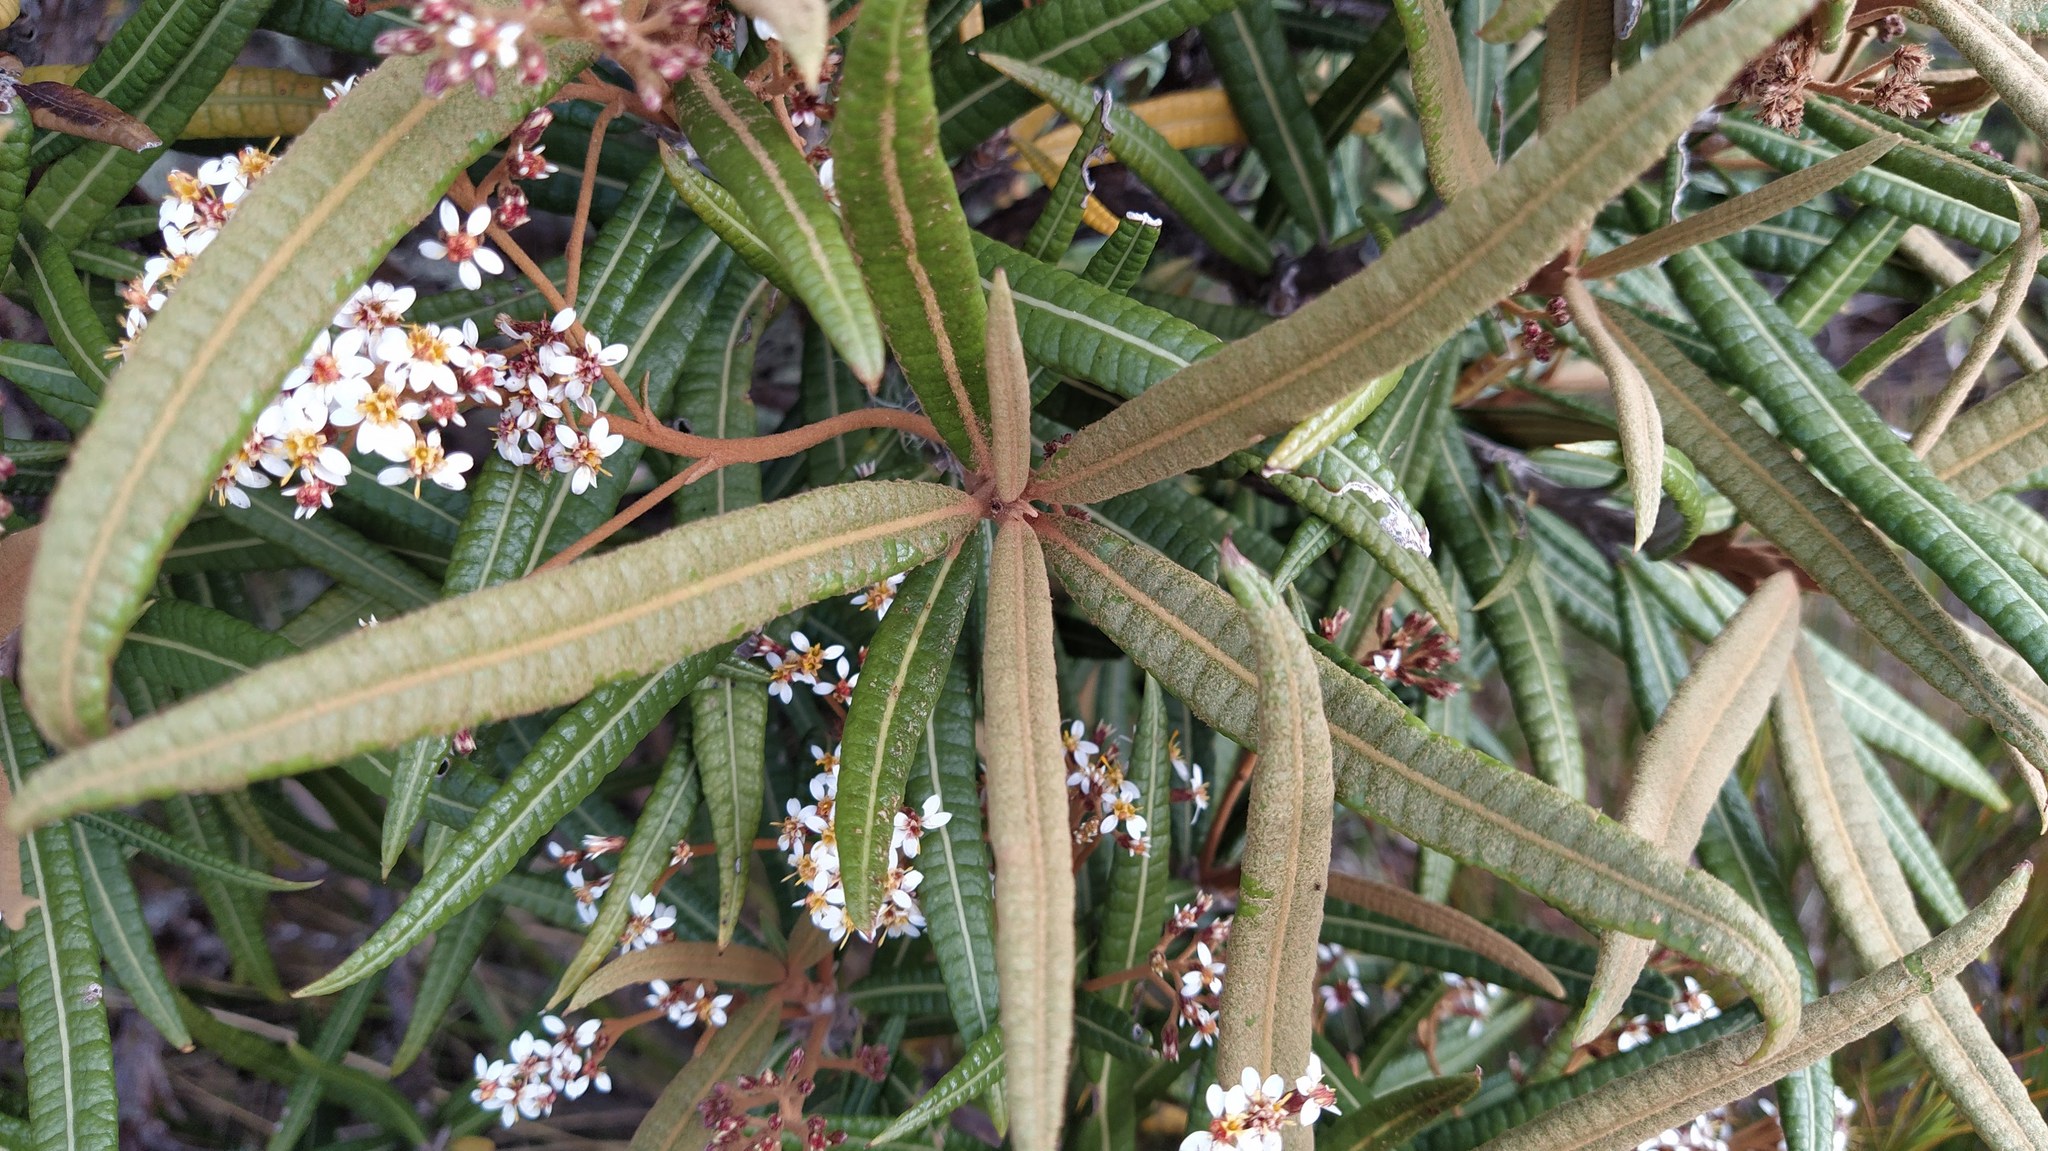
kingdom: Plantae
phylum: Tracheophyta
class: Magnoliopsida
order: Asterales
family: Asteraceae
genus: Olearia
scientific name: Olearia lacunosa
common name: Lancewood tree daisy
